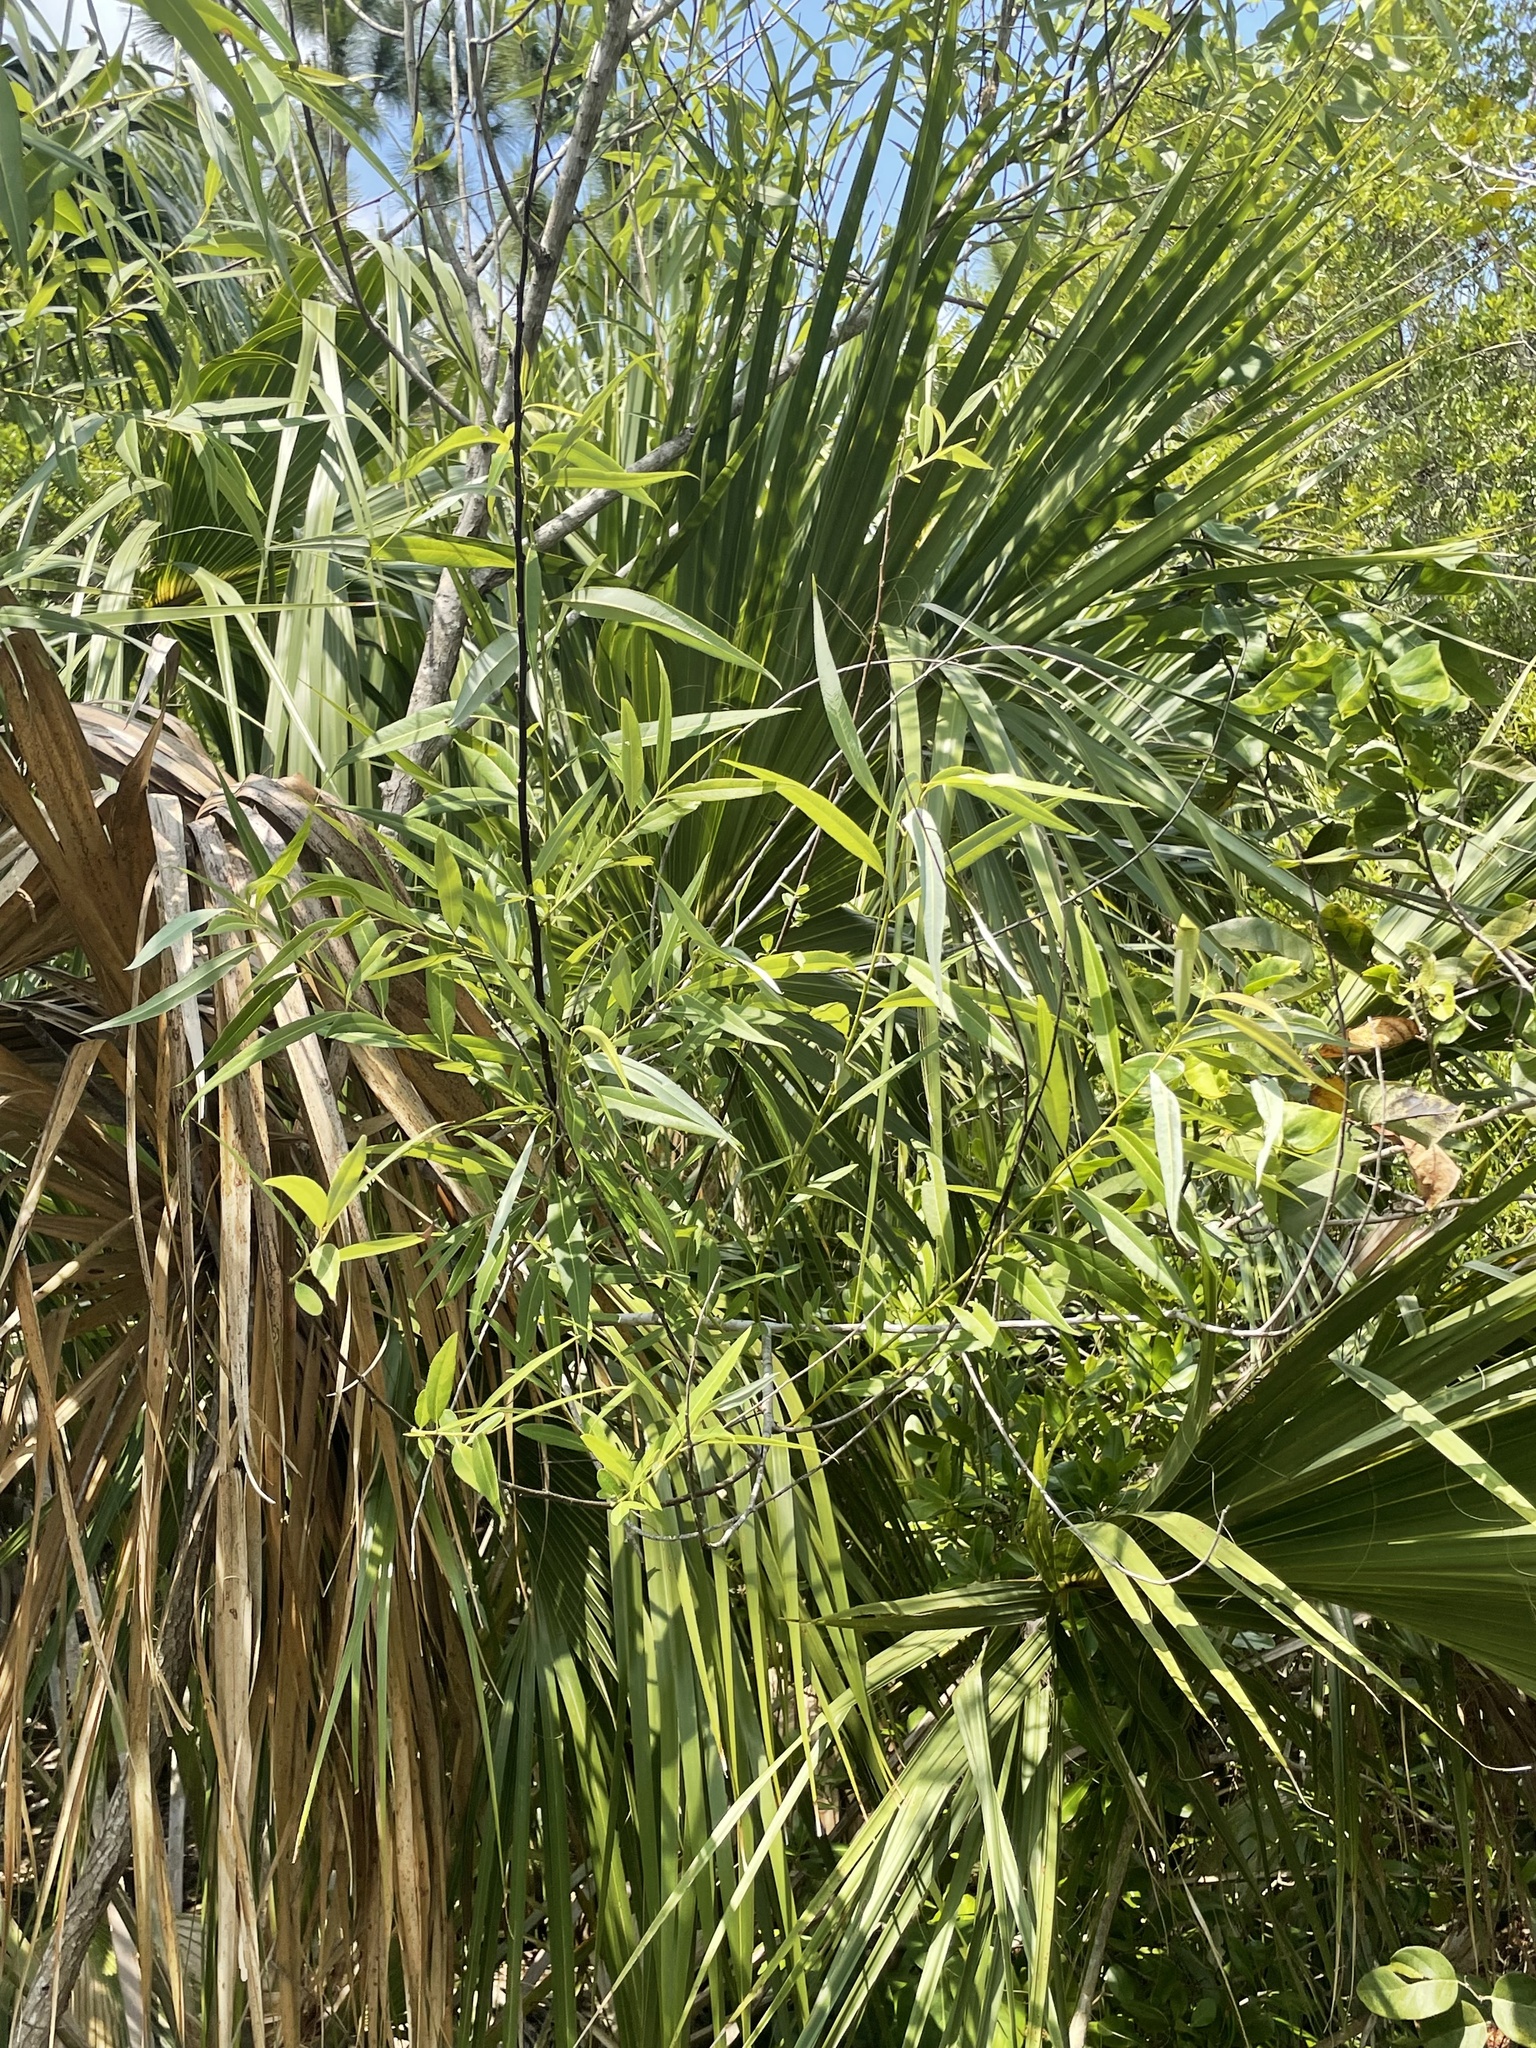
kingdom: Plantae
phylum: Tracheophyta
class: Magnoliopsida
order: Malpighiales
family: Salicaceae
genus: Salix
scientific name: Salix caroliniana
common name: Carolina willow
